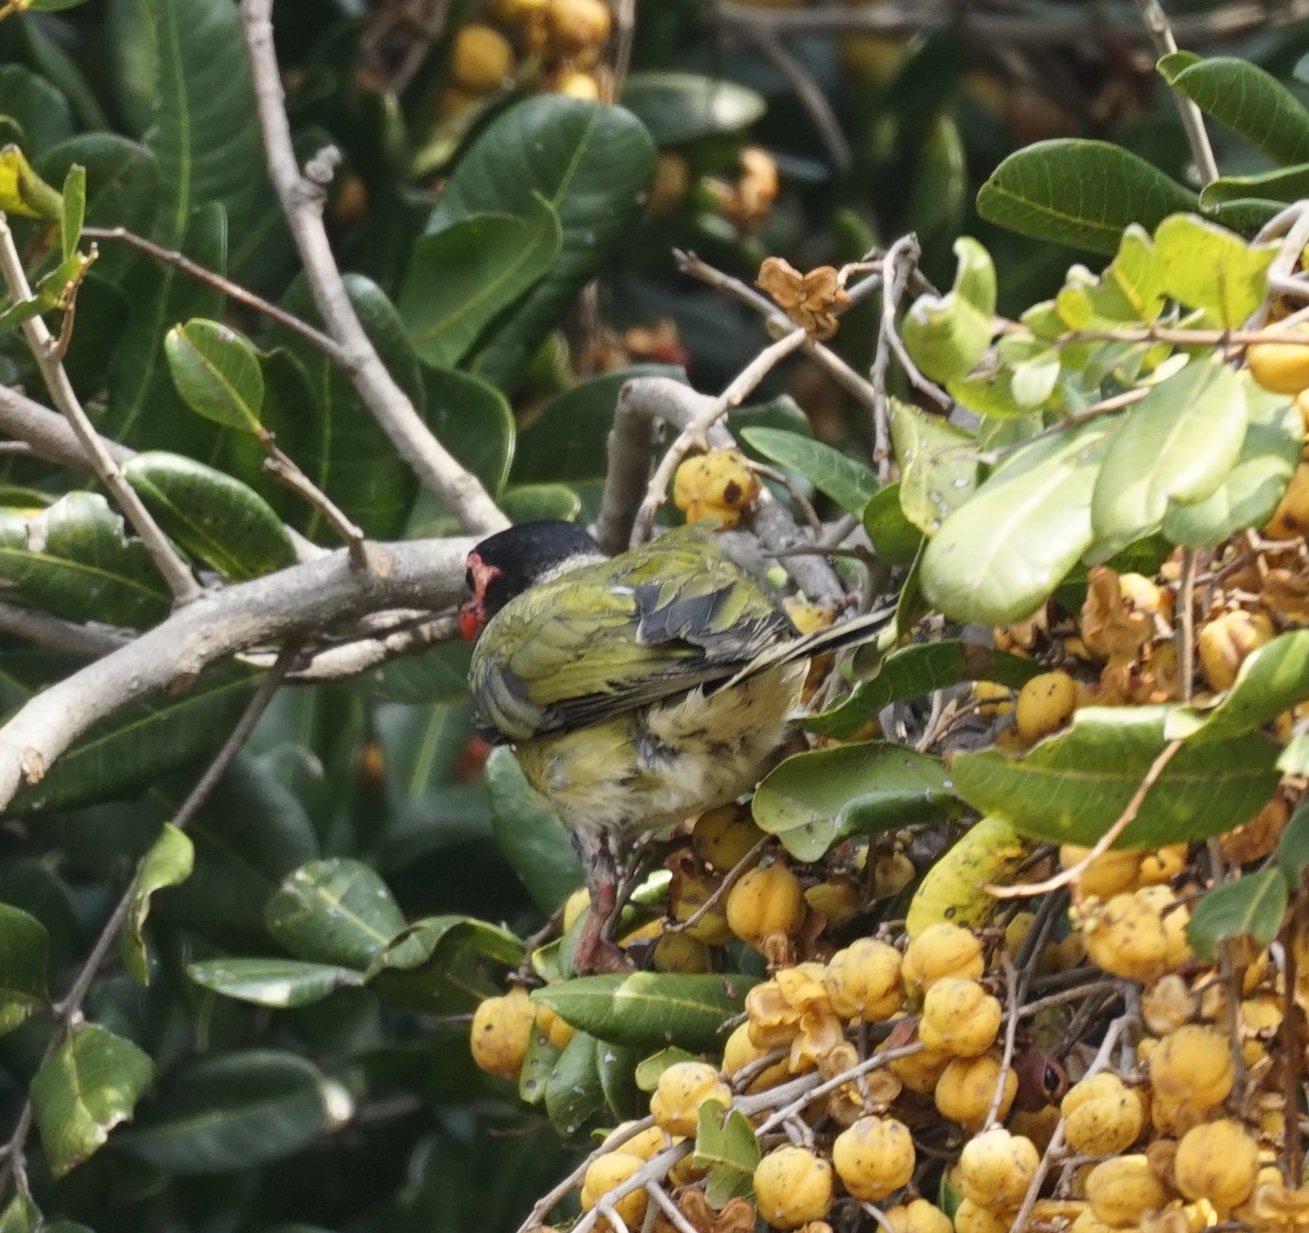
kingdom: Animalia
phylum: Chordata
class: Aves
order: Passeriformes
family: Oriolidae
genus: Sphecotheres
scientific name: Sphecotheres vieilloti
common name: Australasian figbird
